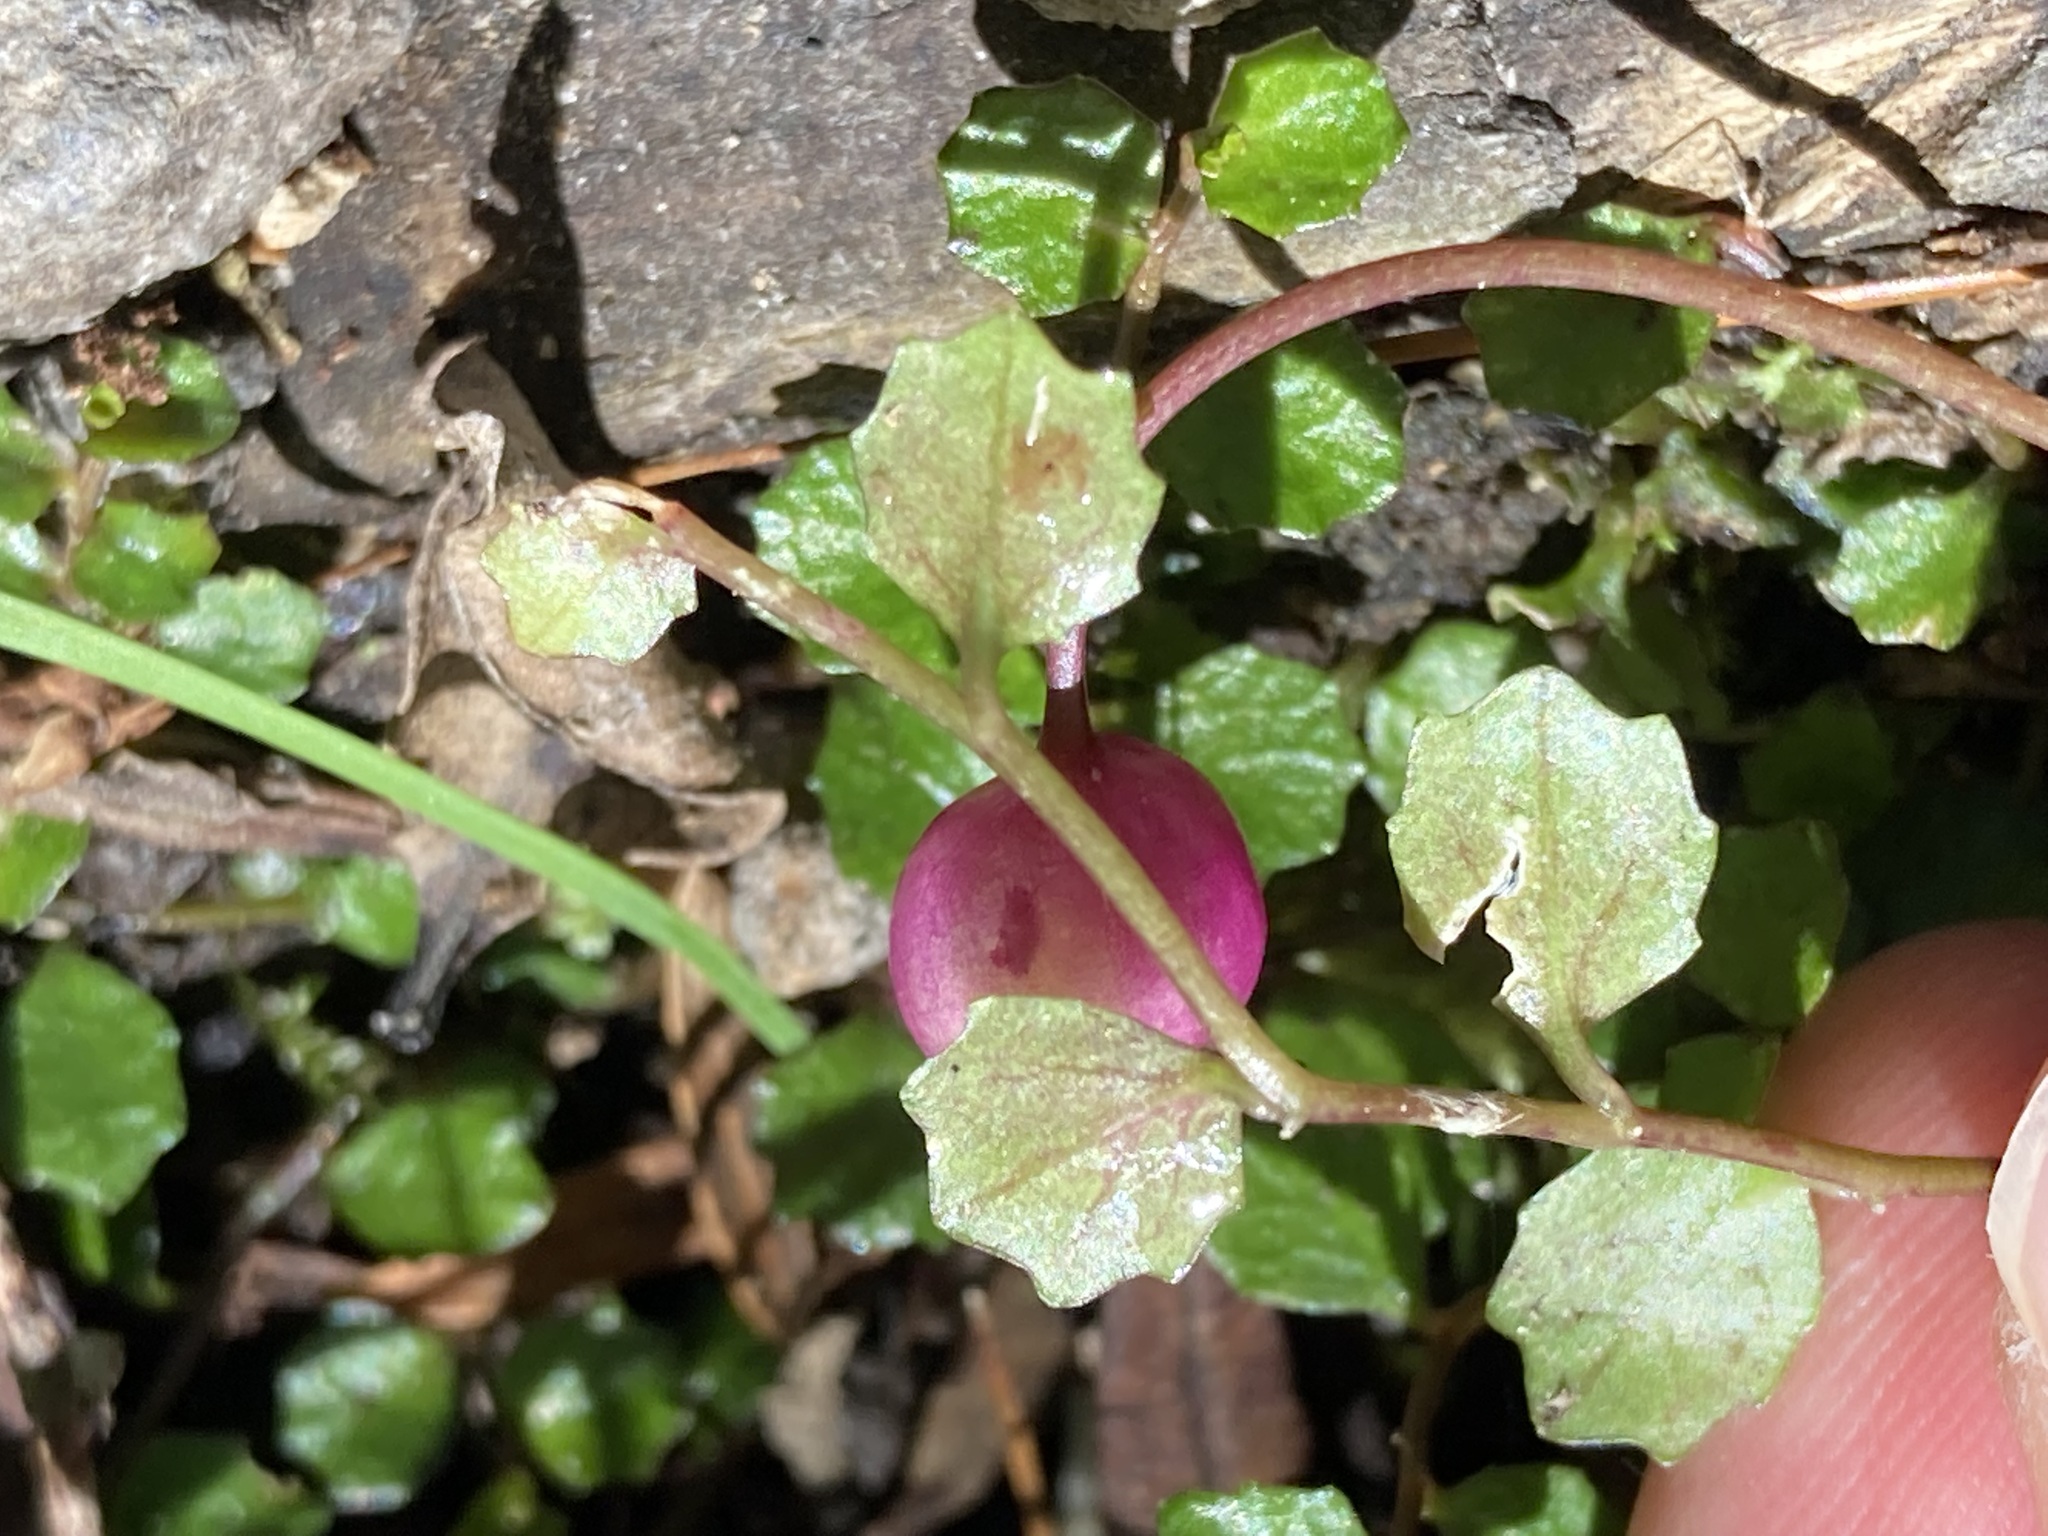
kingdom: Plantae
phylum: Tracheophyta
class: Magnoliopsida
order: Asterales
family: Campanulaceae
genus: Lobelia
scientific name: Lobelia angulata
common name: Lawn lobelia
